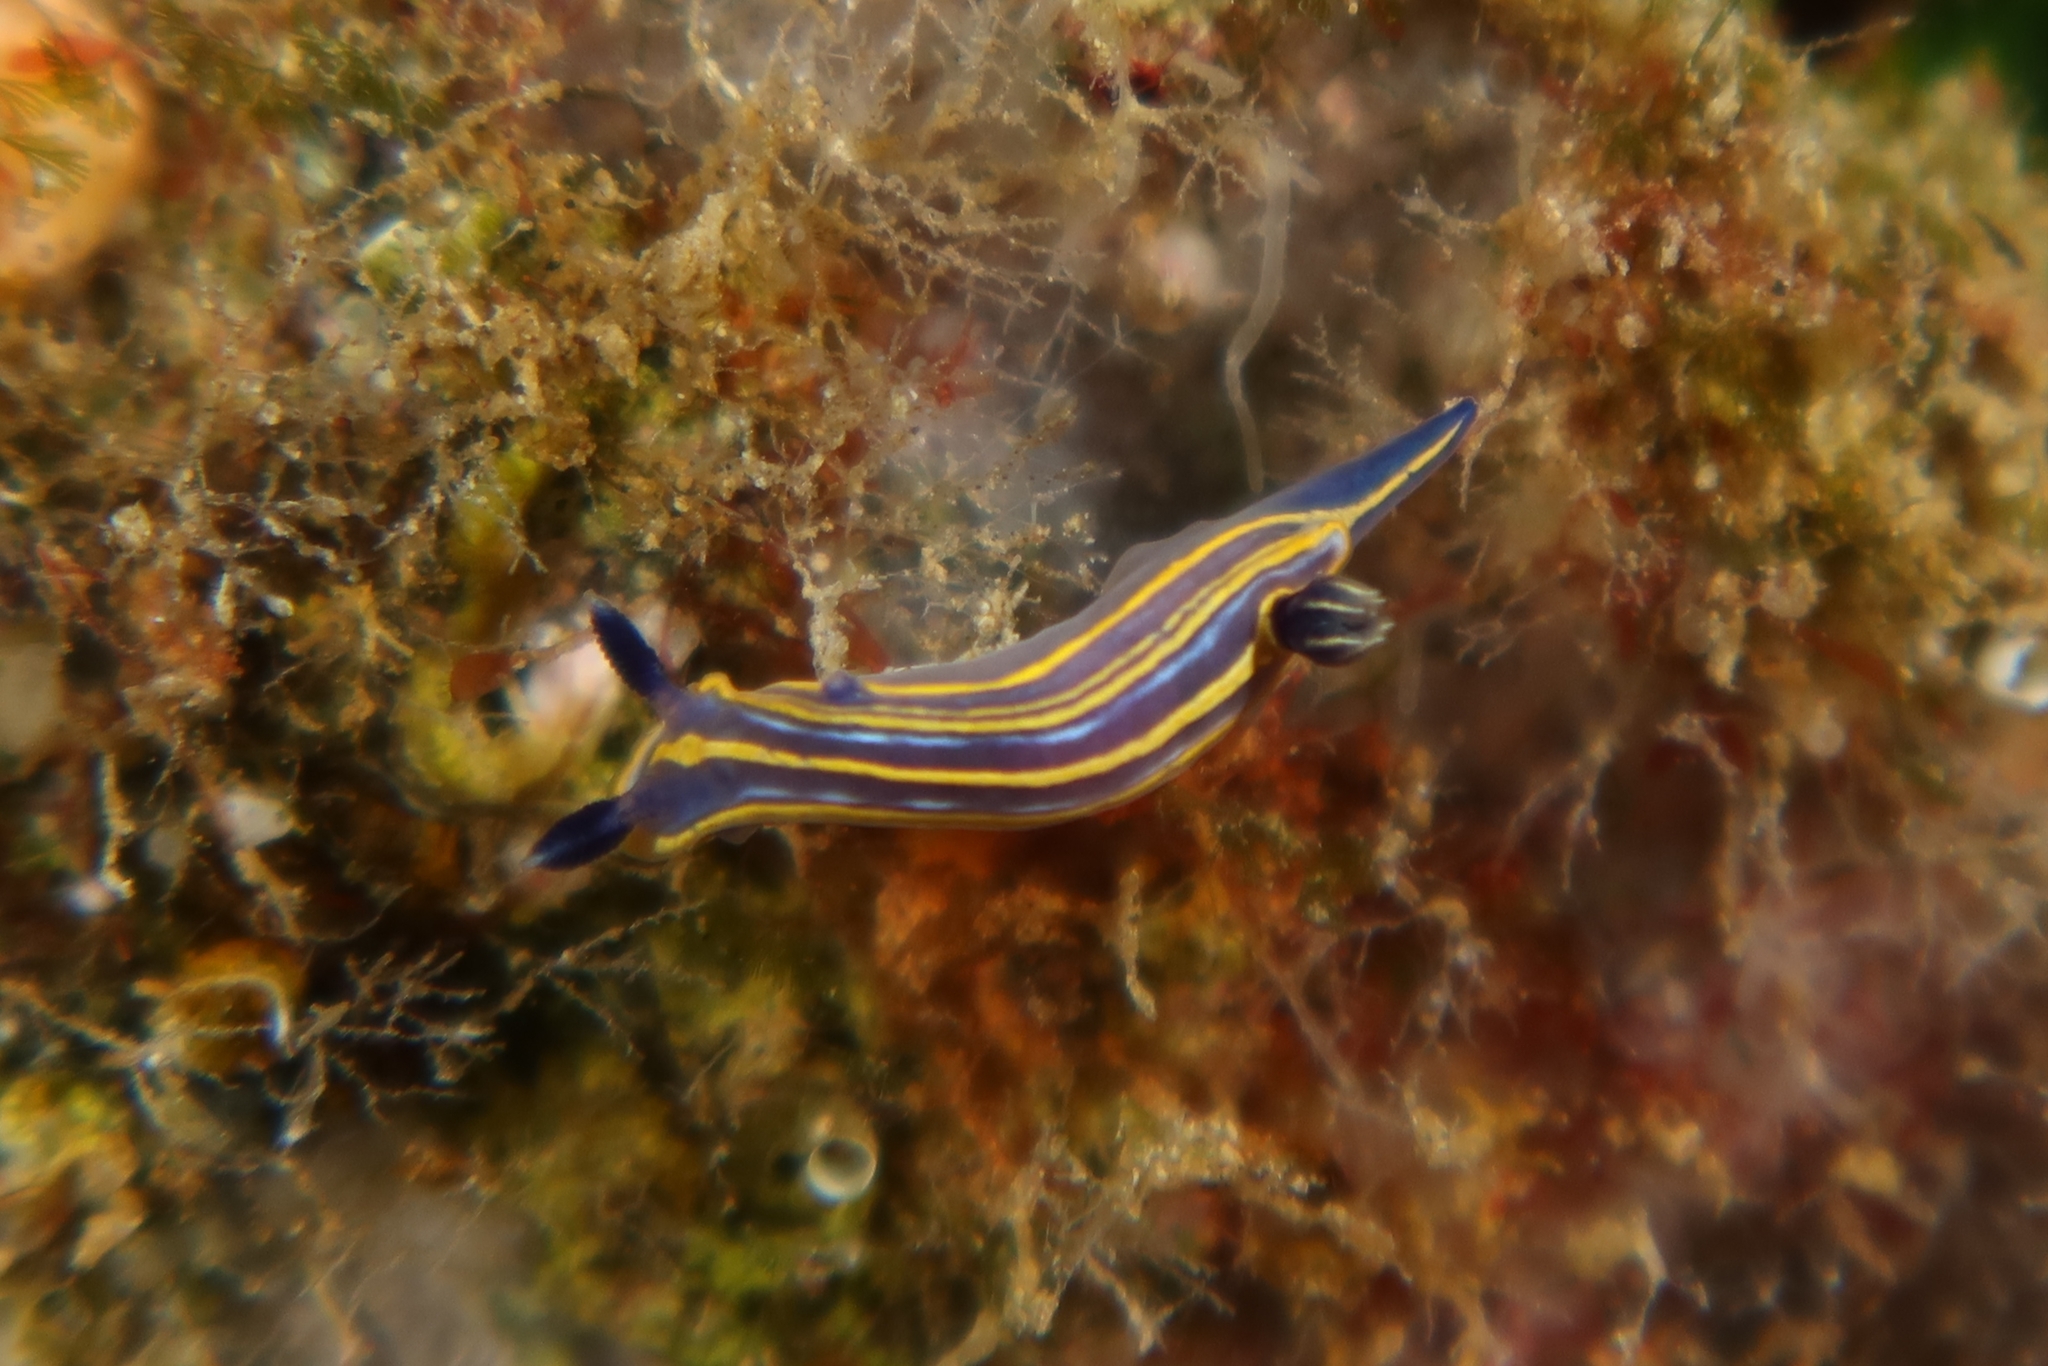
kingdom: Animalia
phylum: Mollusca
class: Gastropoda
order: Nudibranchia
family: Chromodorididae
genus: Felimare
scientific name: Felimare tricolor
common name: Tricolor doris
